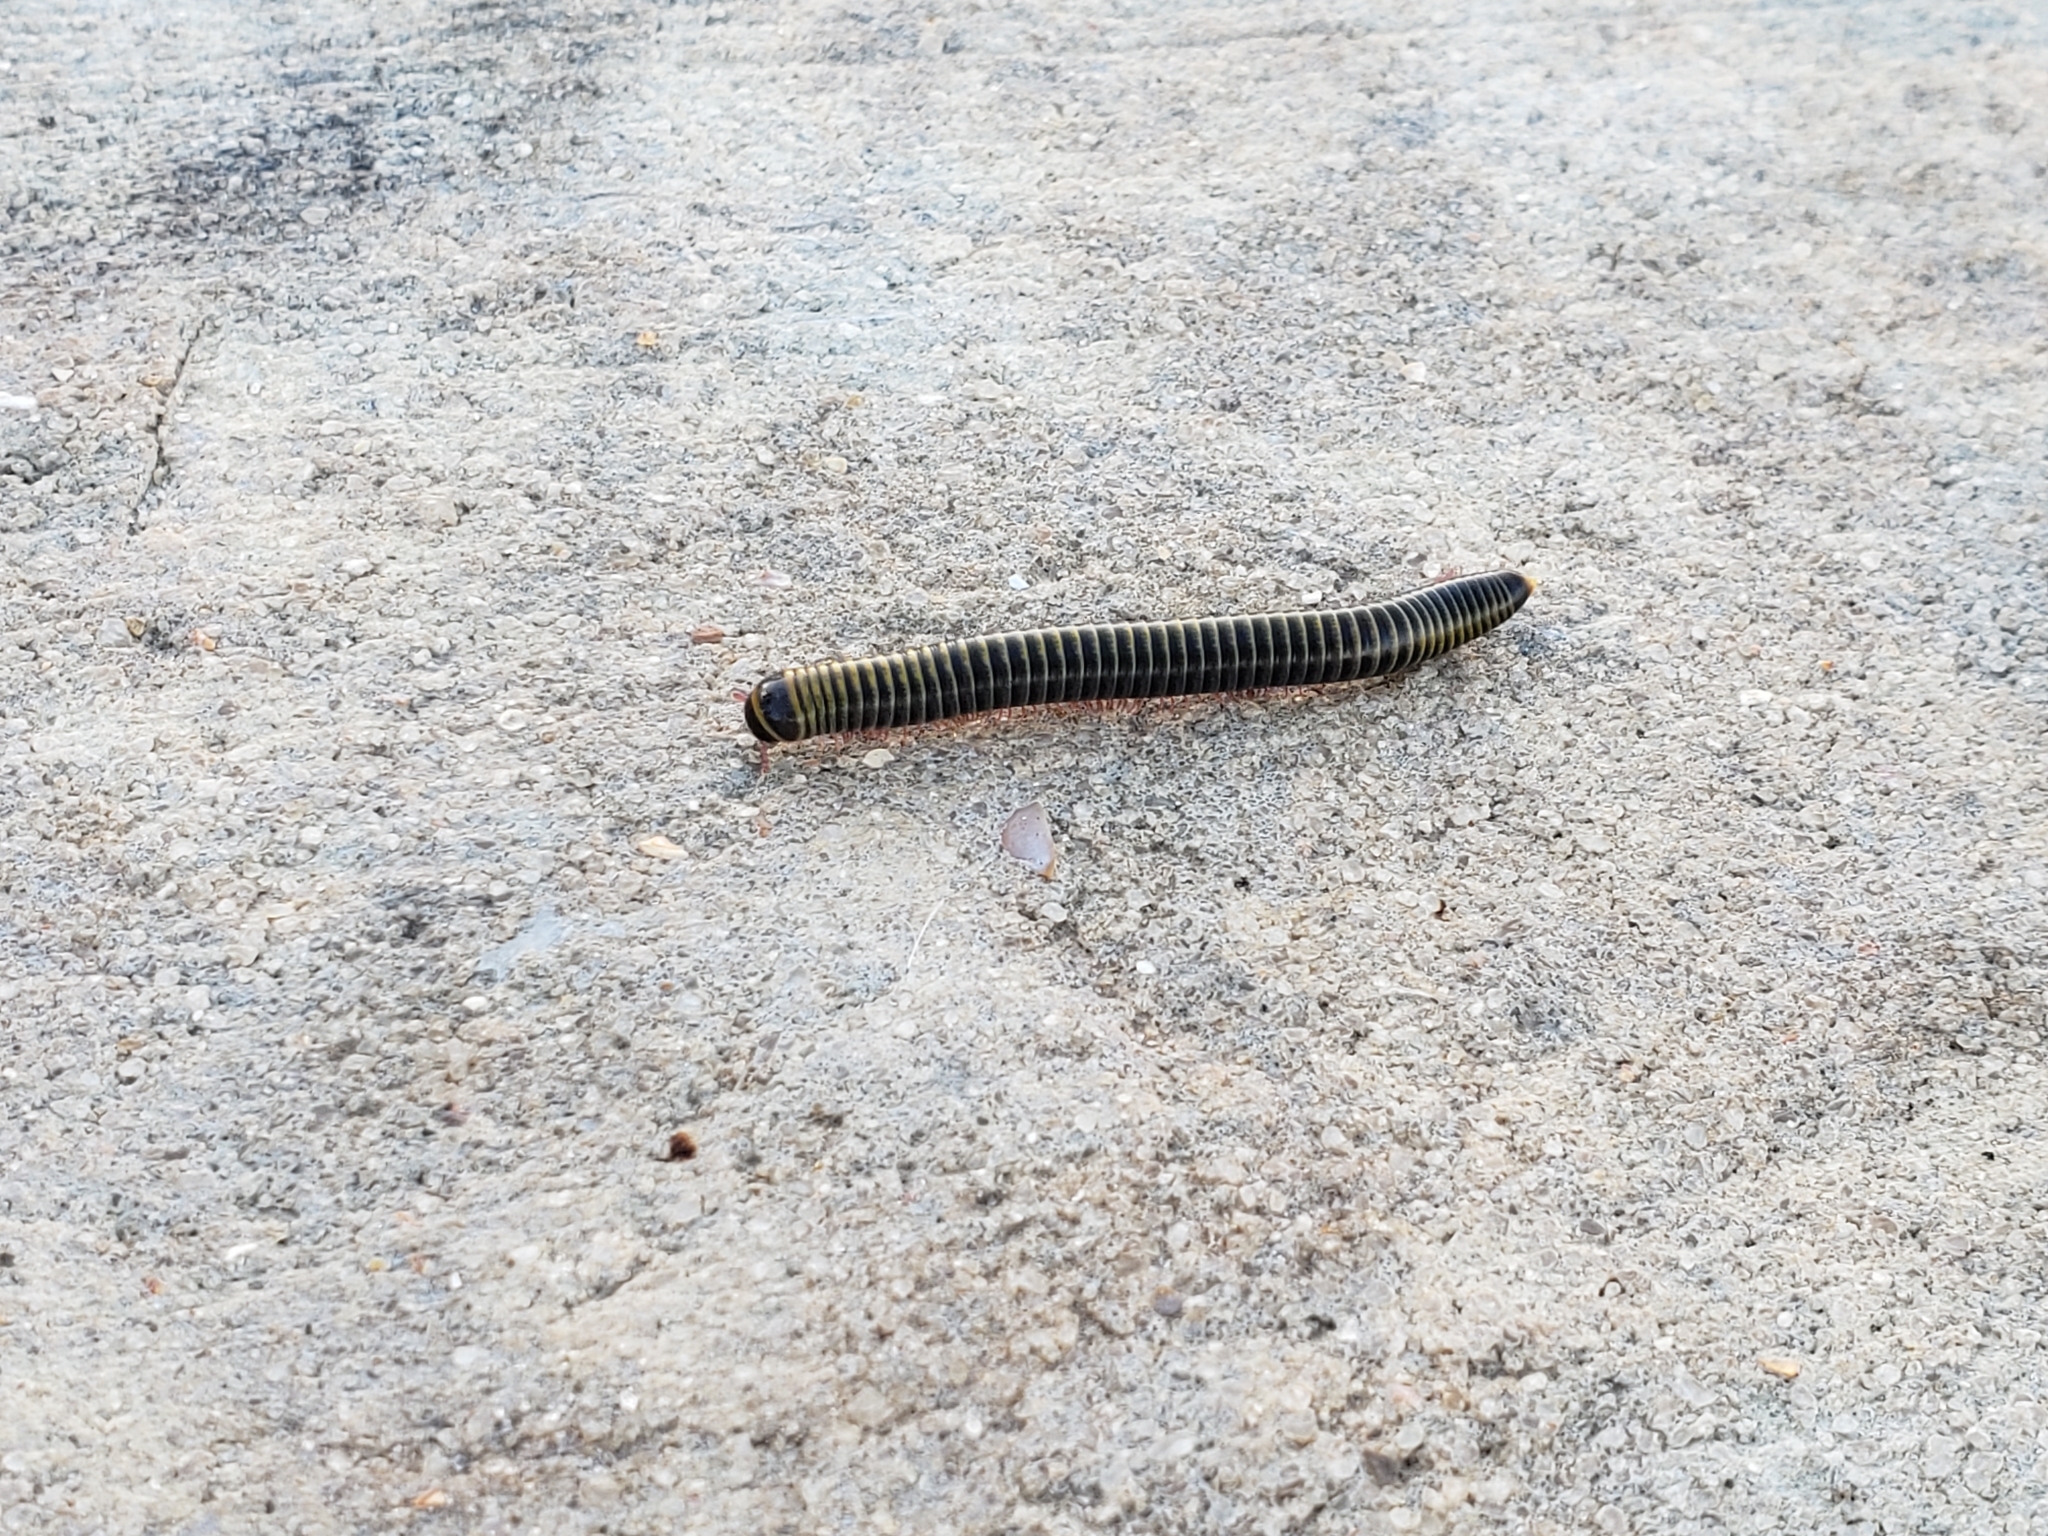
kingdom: Animalia
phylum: Arthropoda
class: Diplopoda
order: Spirobolida
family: Rhinocricidae
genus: Anadenobolus
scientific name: Anadenobolus monilicornis
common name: Caribbean millipede
